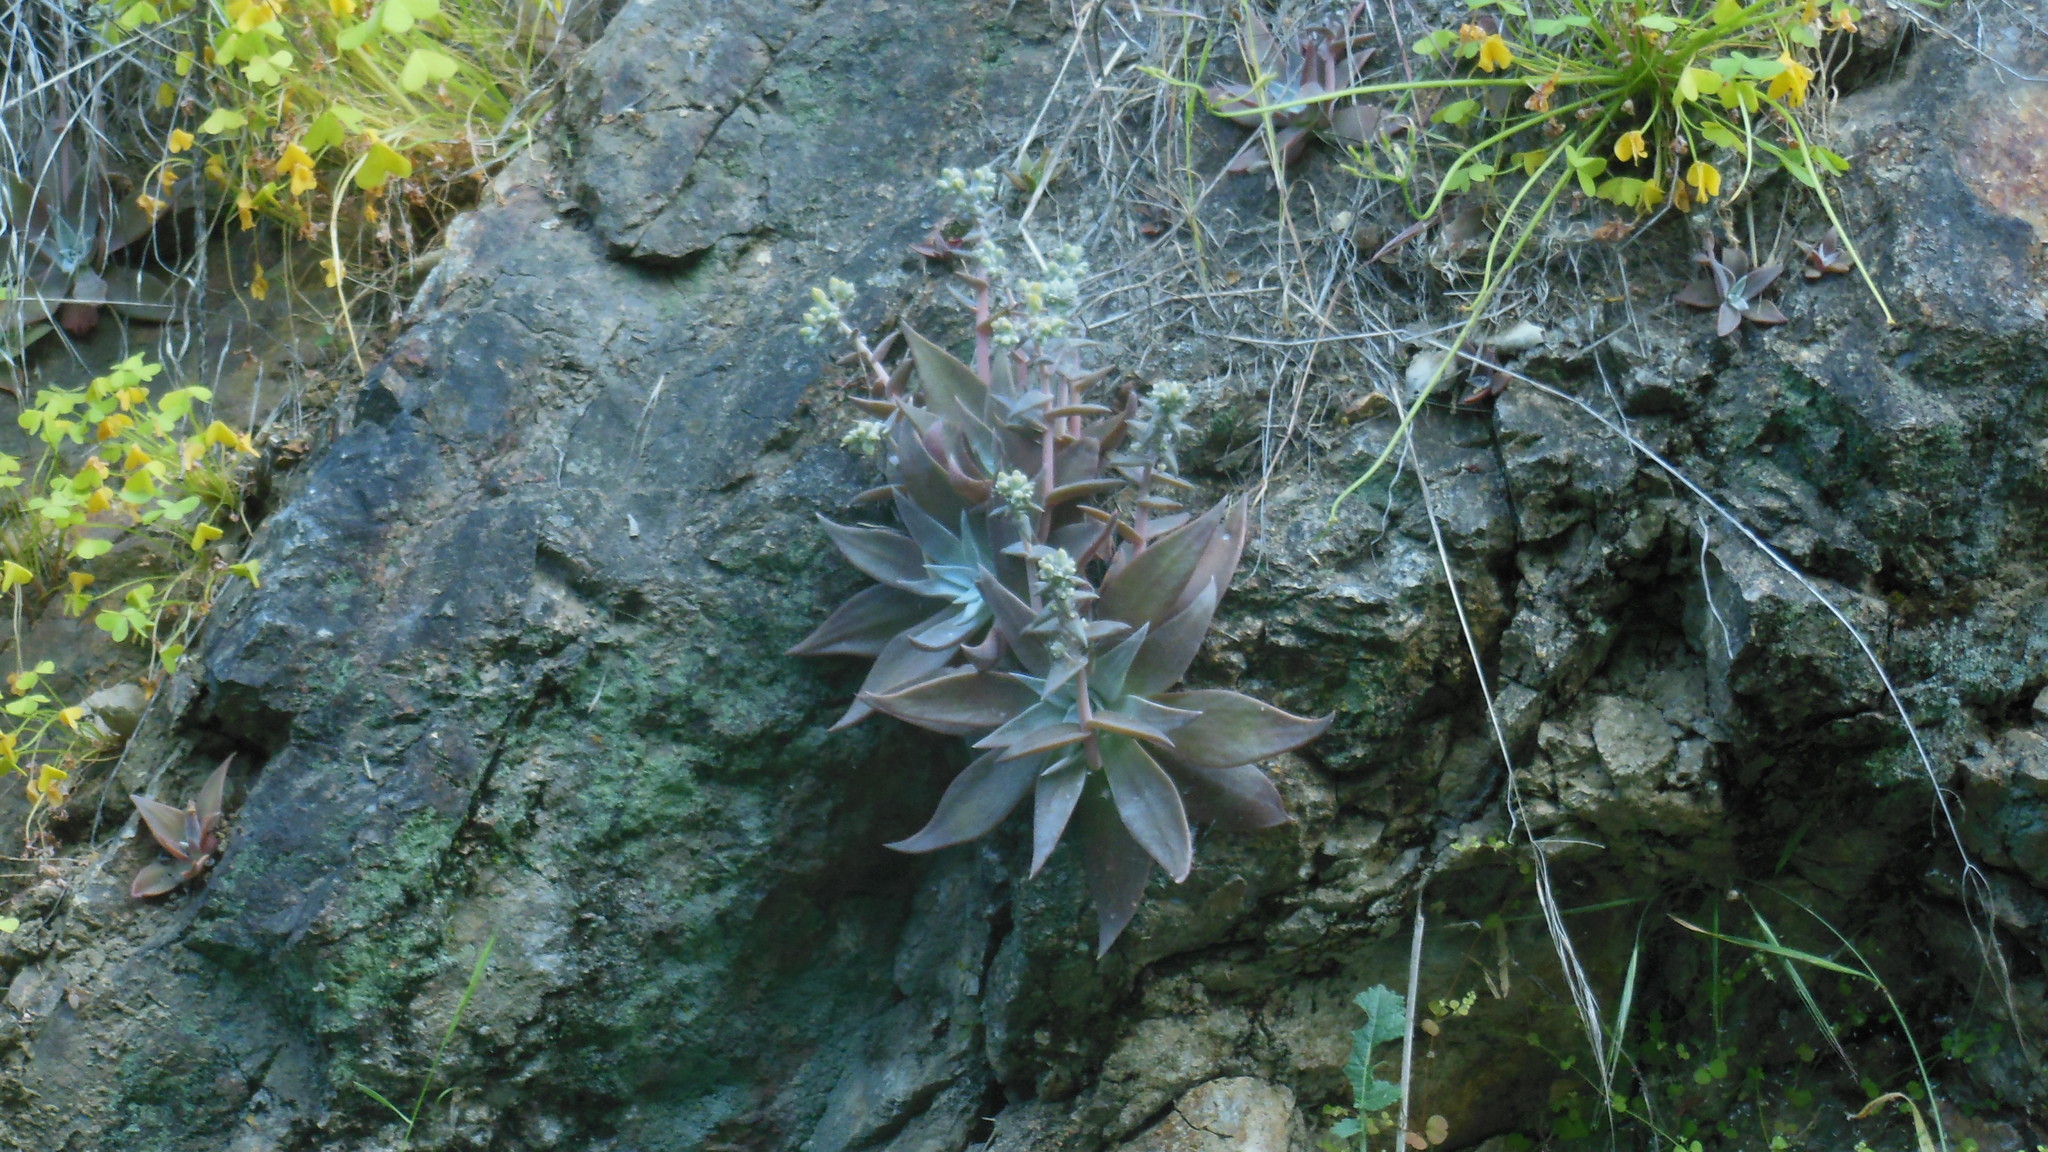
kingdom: Plantae
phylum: Tracheophyta
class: Magnoliopsida
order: Saxifragales
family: Crassulaceae
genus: Dudleya
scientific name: Dudleya cymosa
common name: Canyon dudleya
